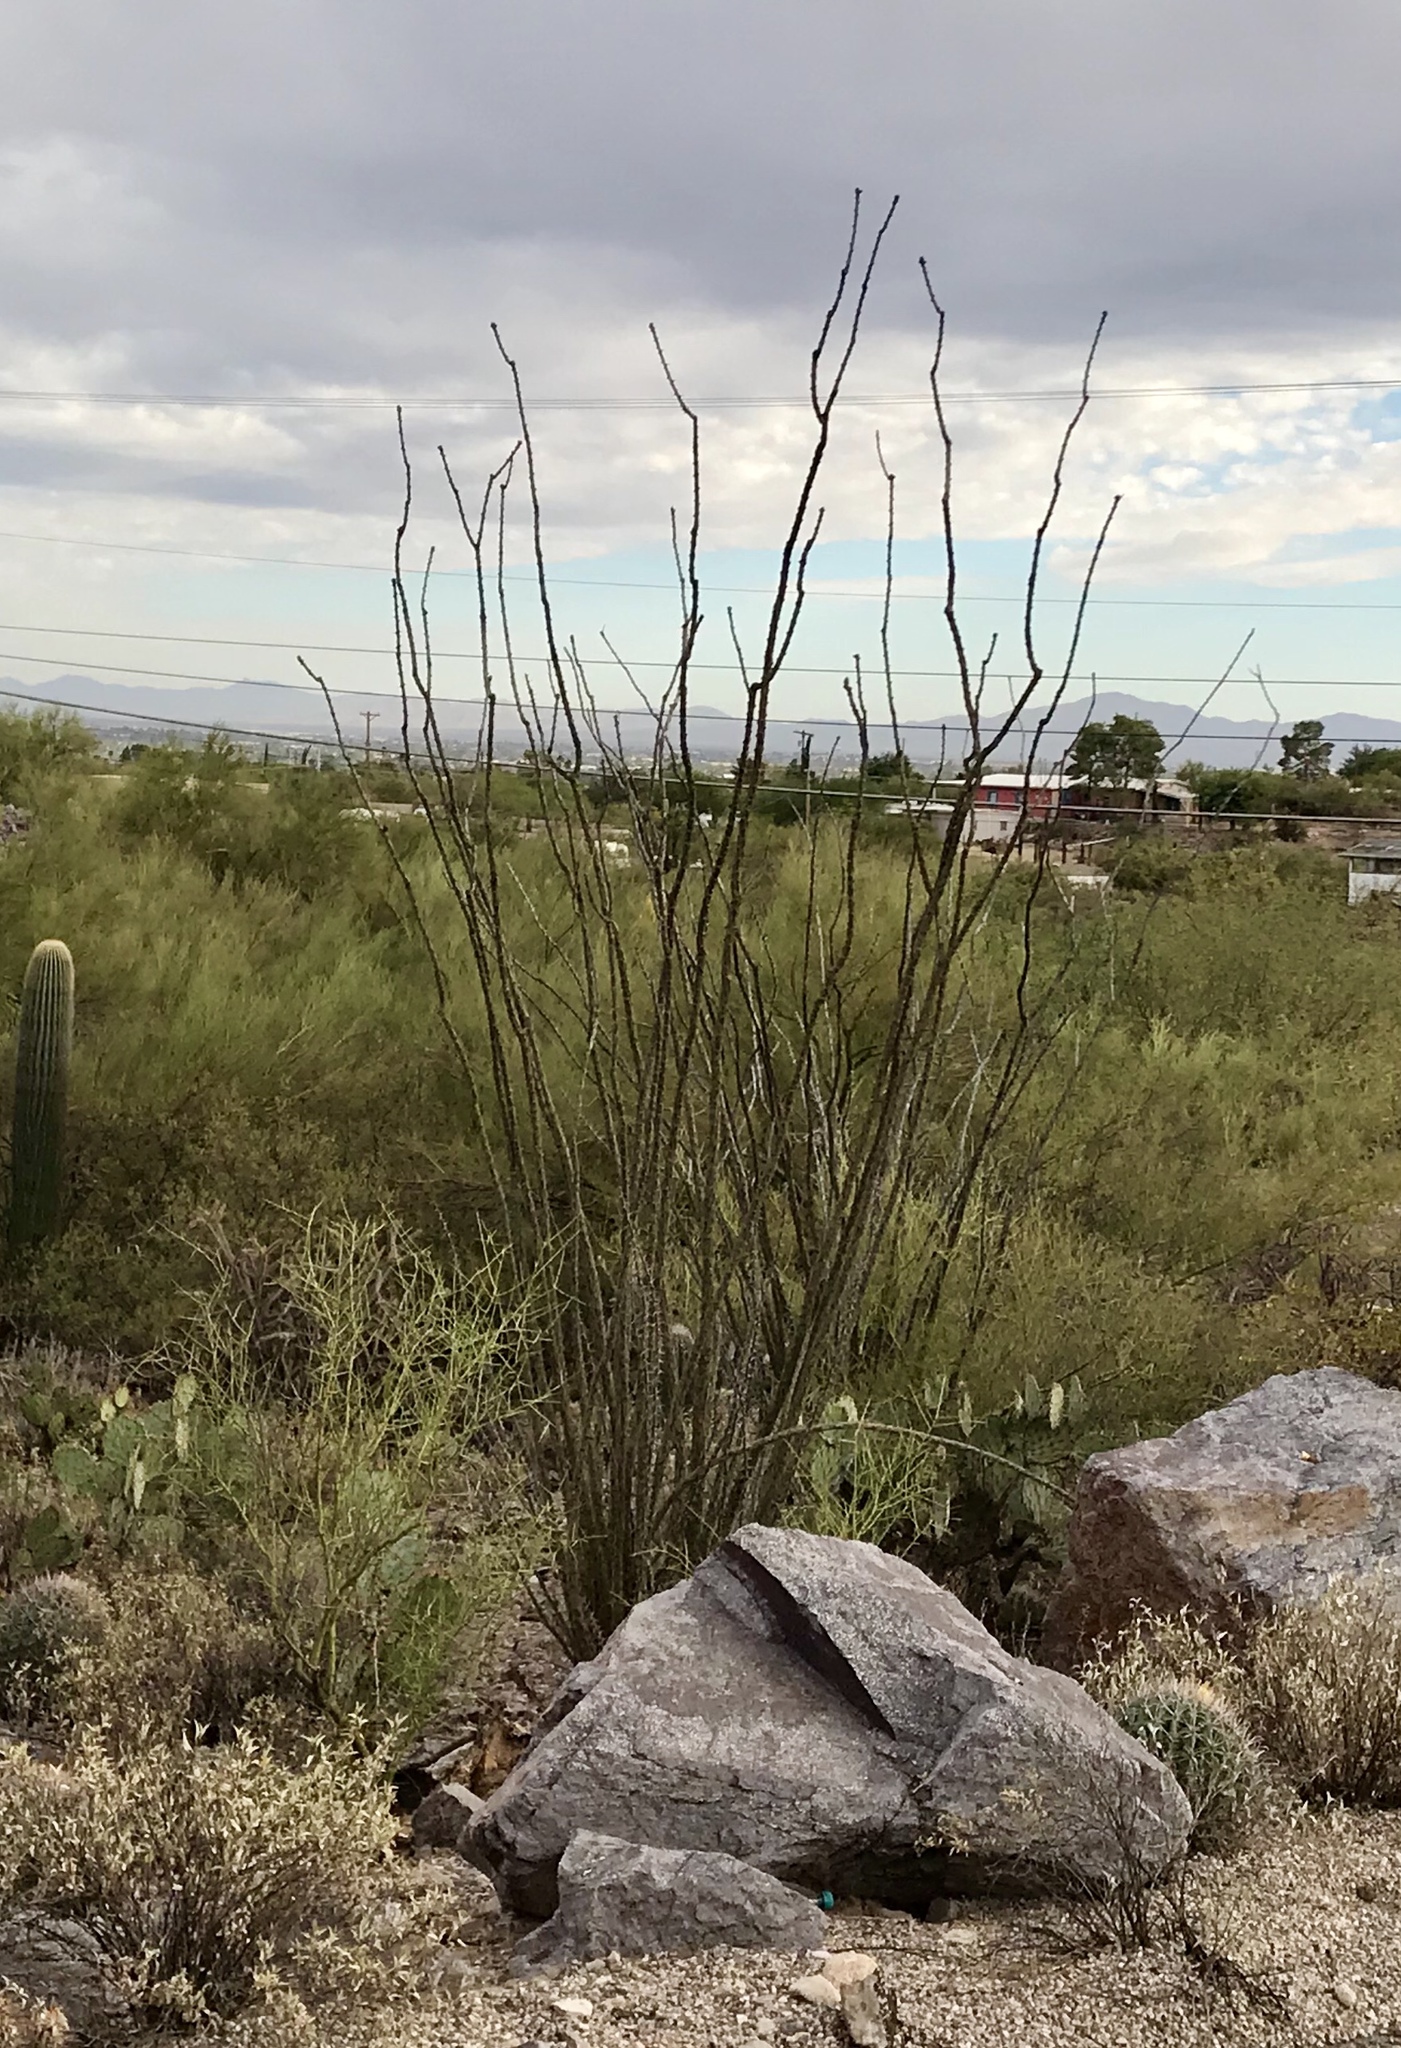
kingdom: Plantae
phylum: Tracheophyta
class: Magnoliopsida
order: Ericales
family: Fouquieriaceae
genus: Fouquieria
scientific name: Fouquieria splendens
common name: Vine-cactus
